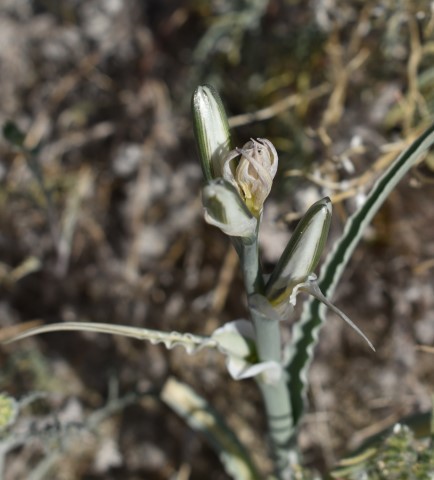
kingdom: Plantae
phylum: Tracheophyta
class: Liliopsida
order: Asparagales
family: Asparagaceae
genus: Hesperocallis
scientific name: Hesperocallis undulata
